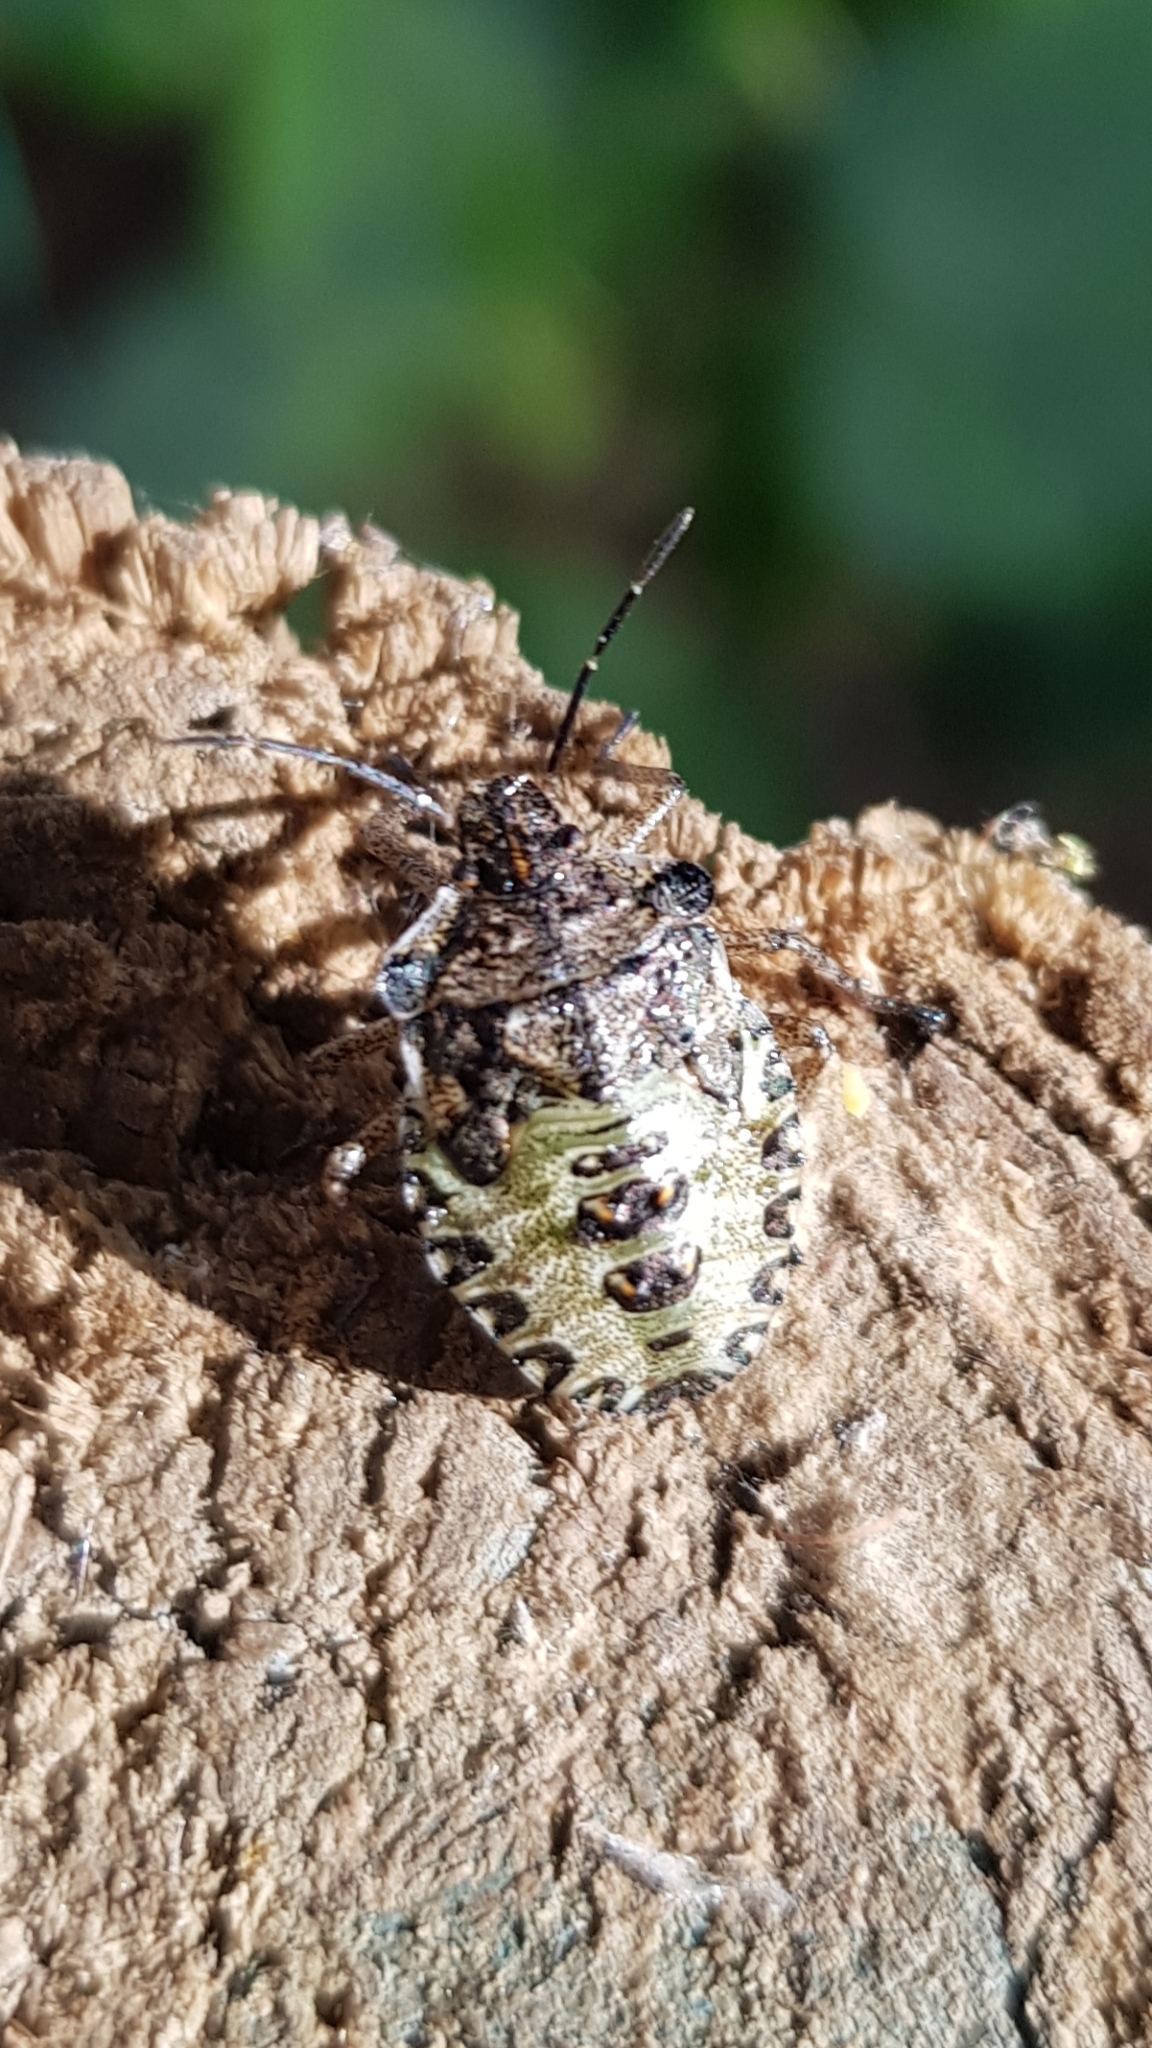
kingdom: Animalia
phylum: Arthropoda
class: Insecta
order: Hemiptera
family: Pentatomidae
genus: Pentatoma
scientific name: Pentatoma rufipes
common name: Forest bug
